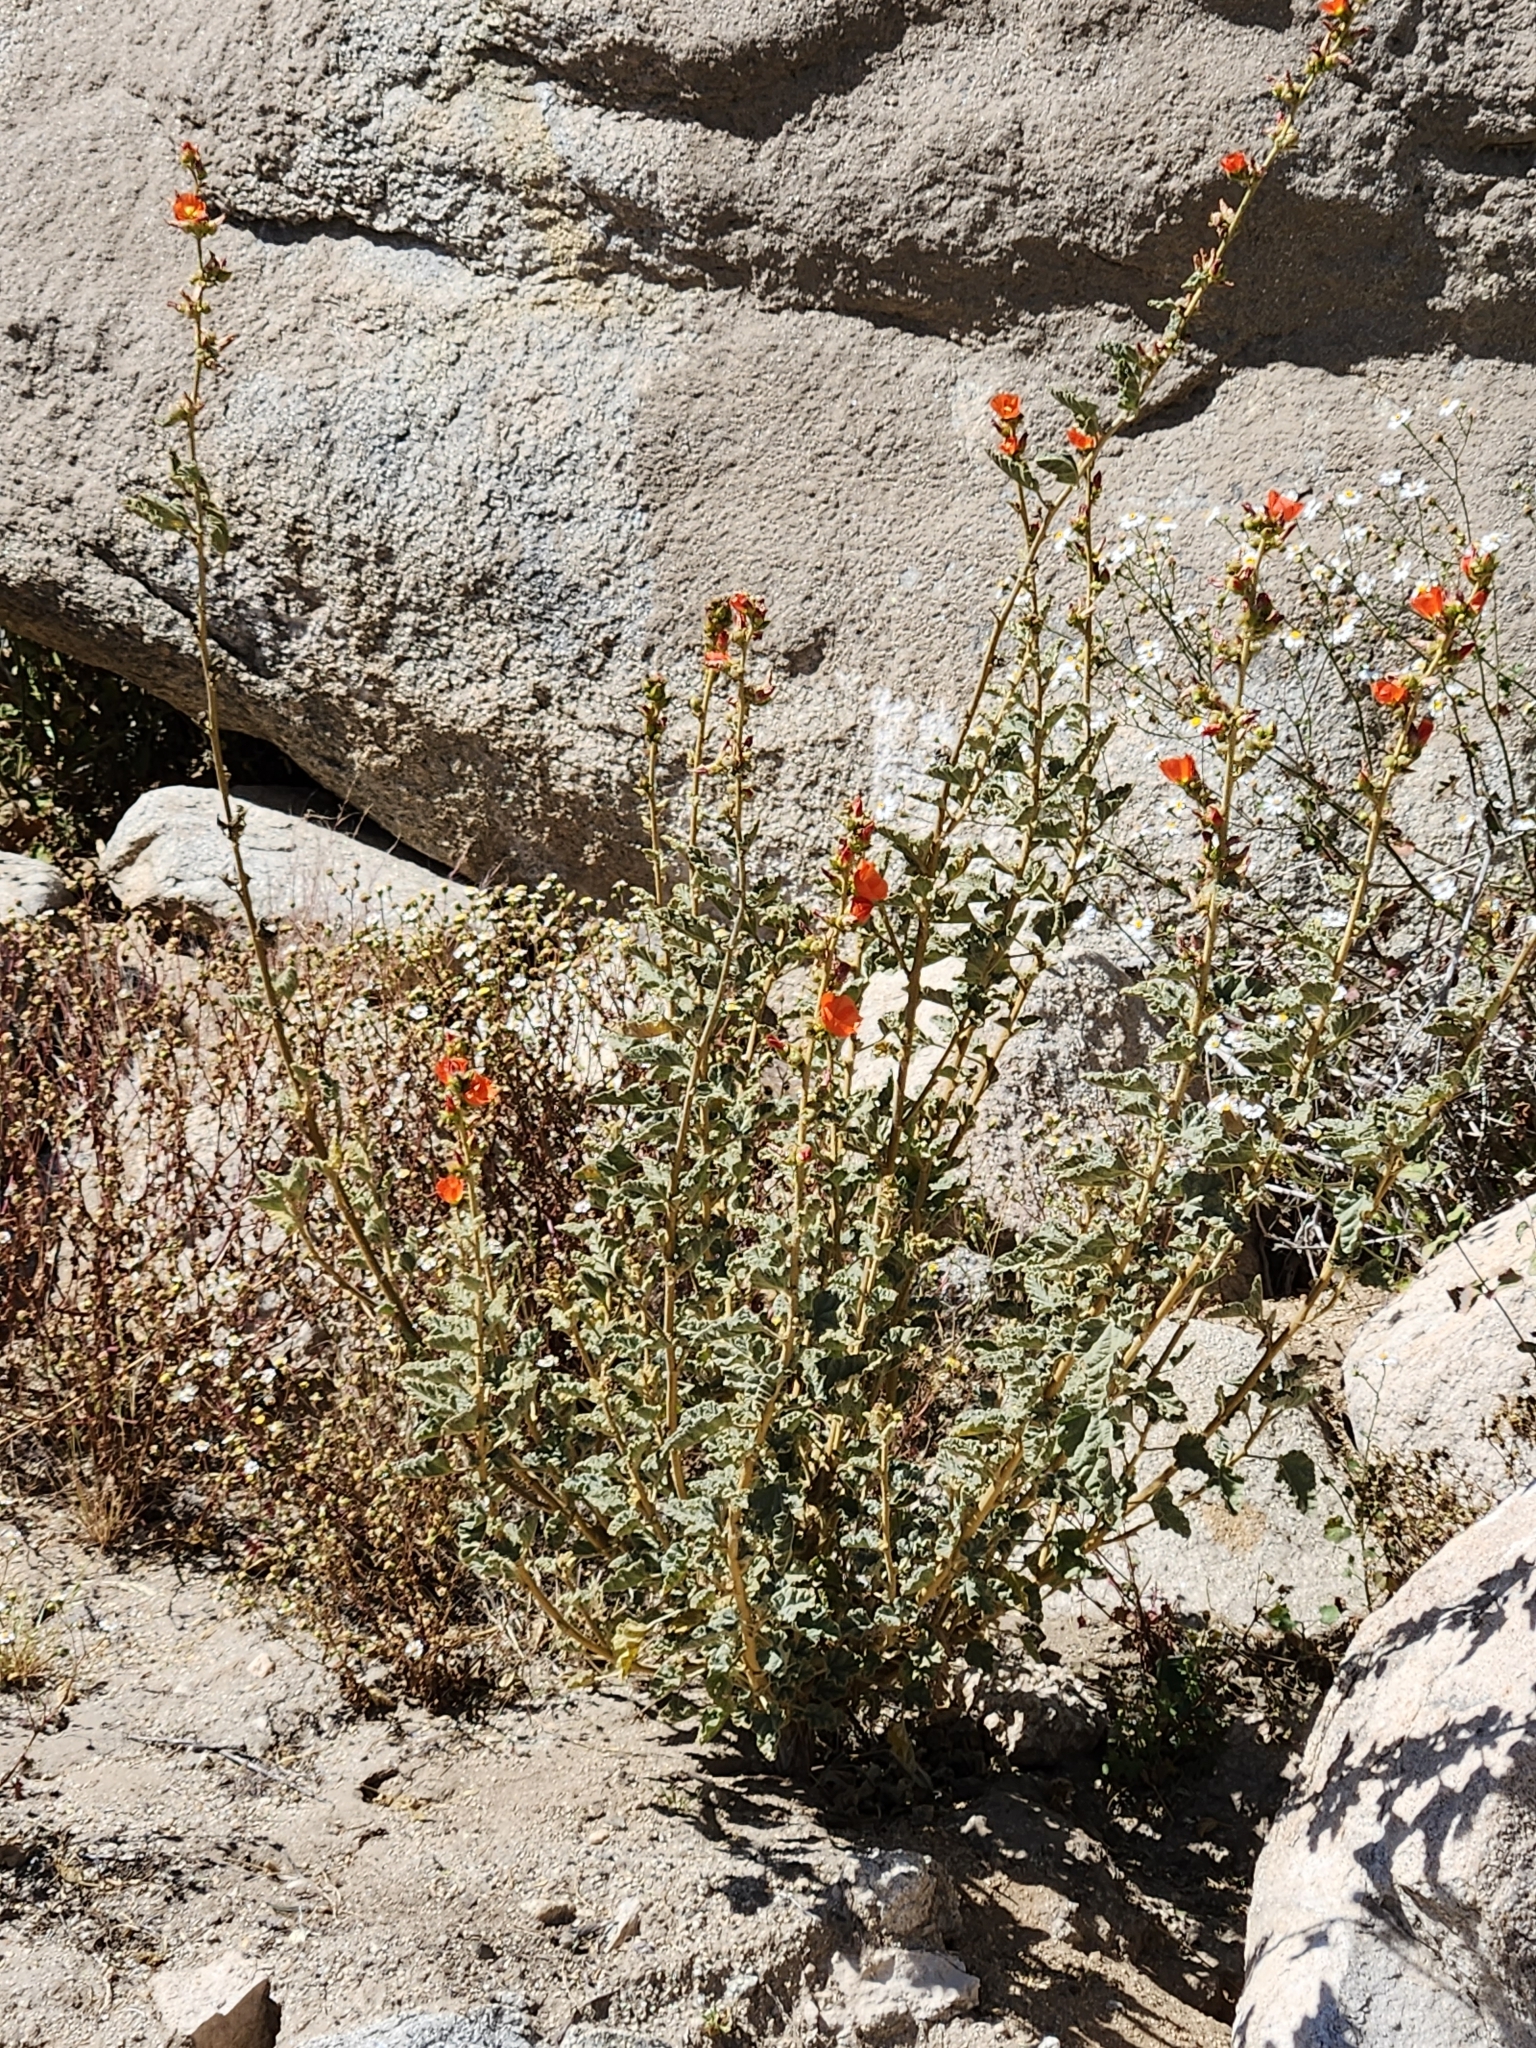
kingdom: Plantae
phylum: Tracheophyta
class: Magnoliopsida
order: Malvales
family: Malvaceae
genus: Sphaeralcea
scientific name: Sphaeralcea ambigua
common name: Apricot globe-mallow
